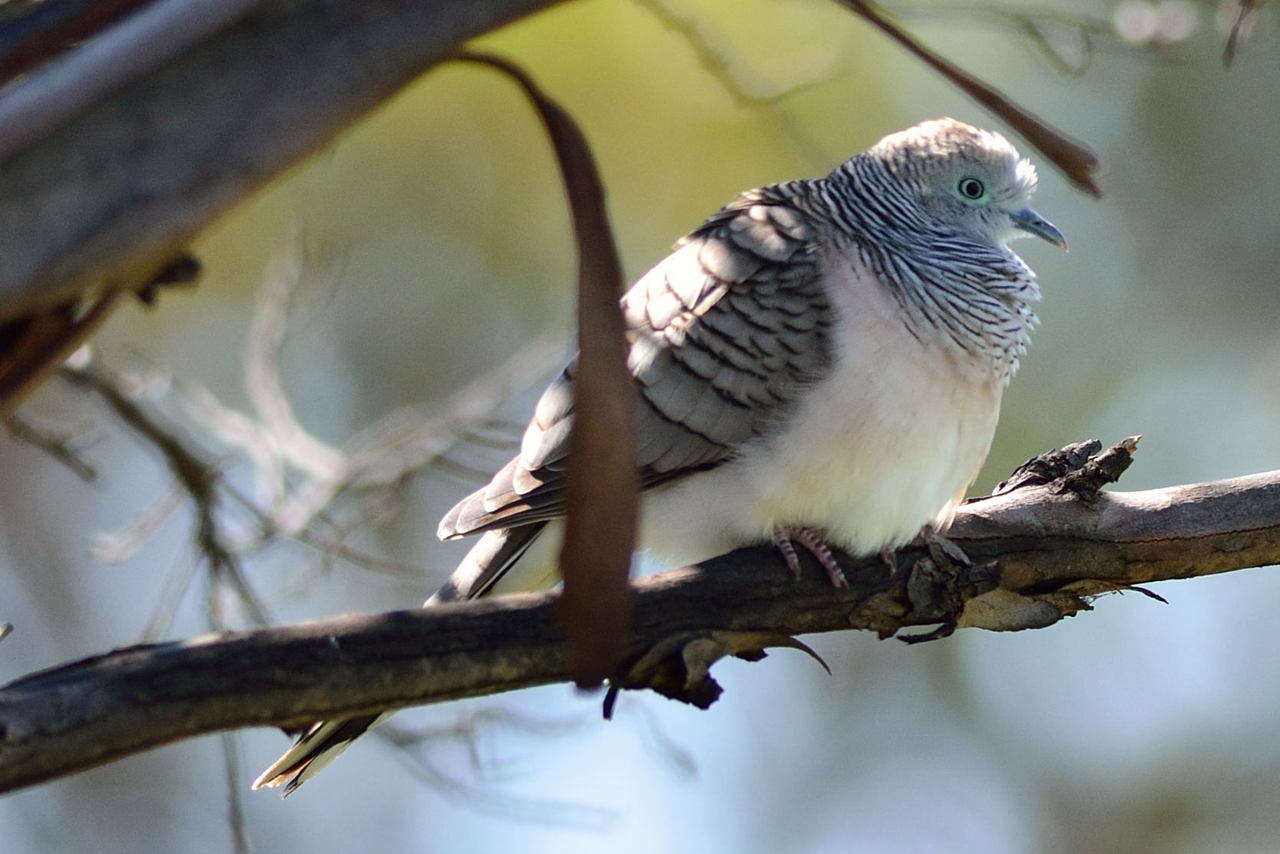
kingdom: Animalia
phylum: Chordata
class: Aves
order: Columbiformes
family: Columbidae
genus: Geopelia
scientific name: Geopelia placida
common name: Peaceful dove
